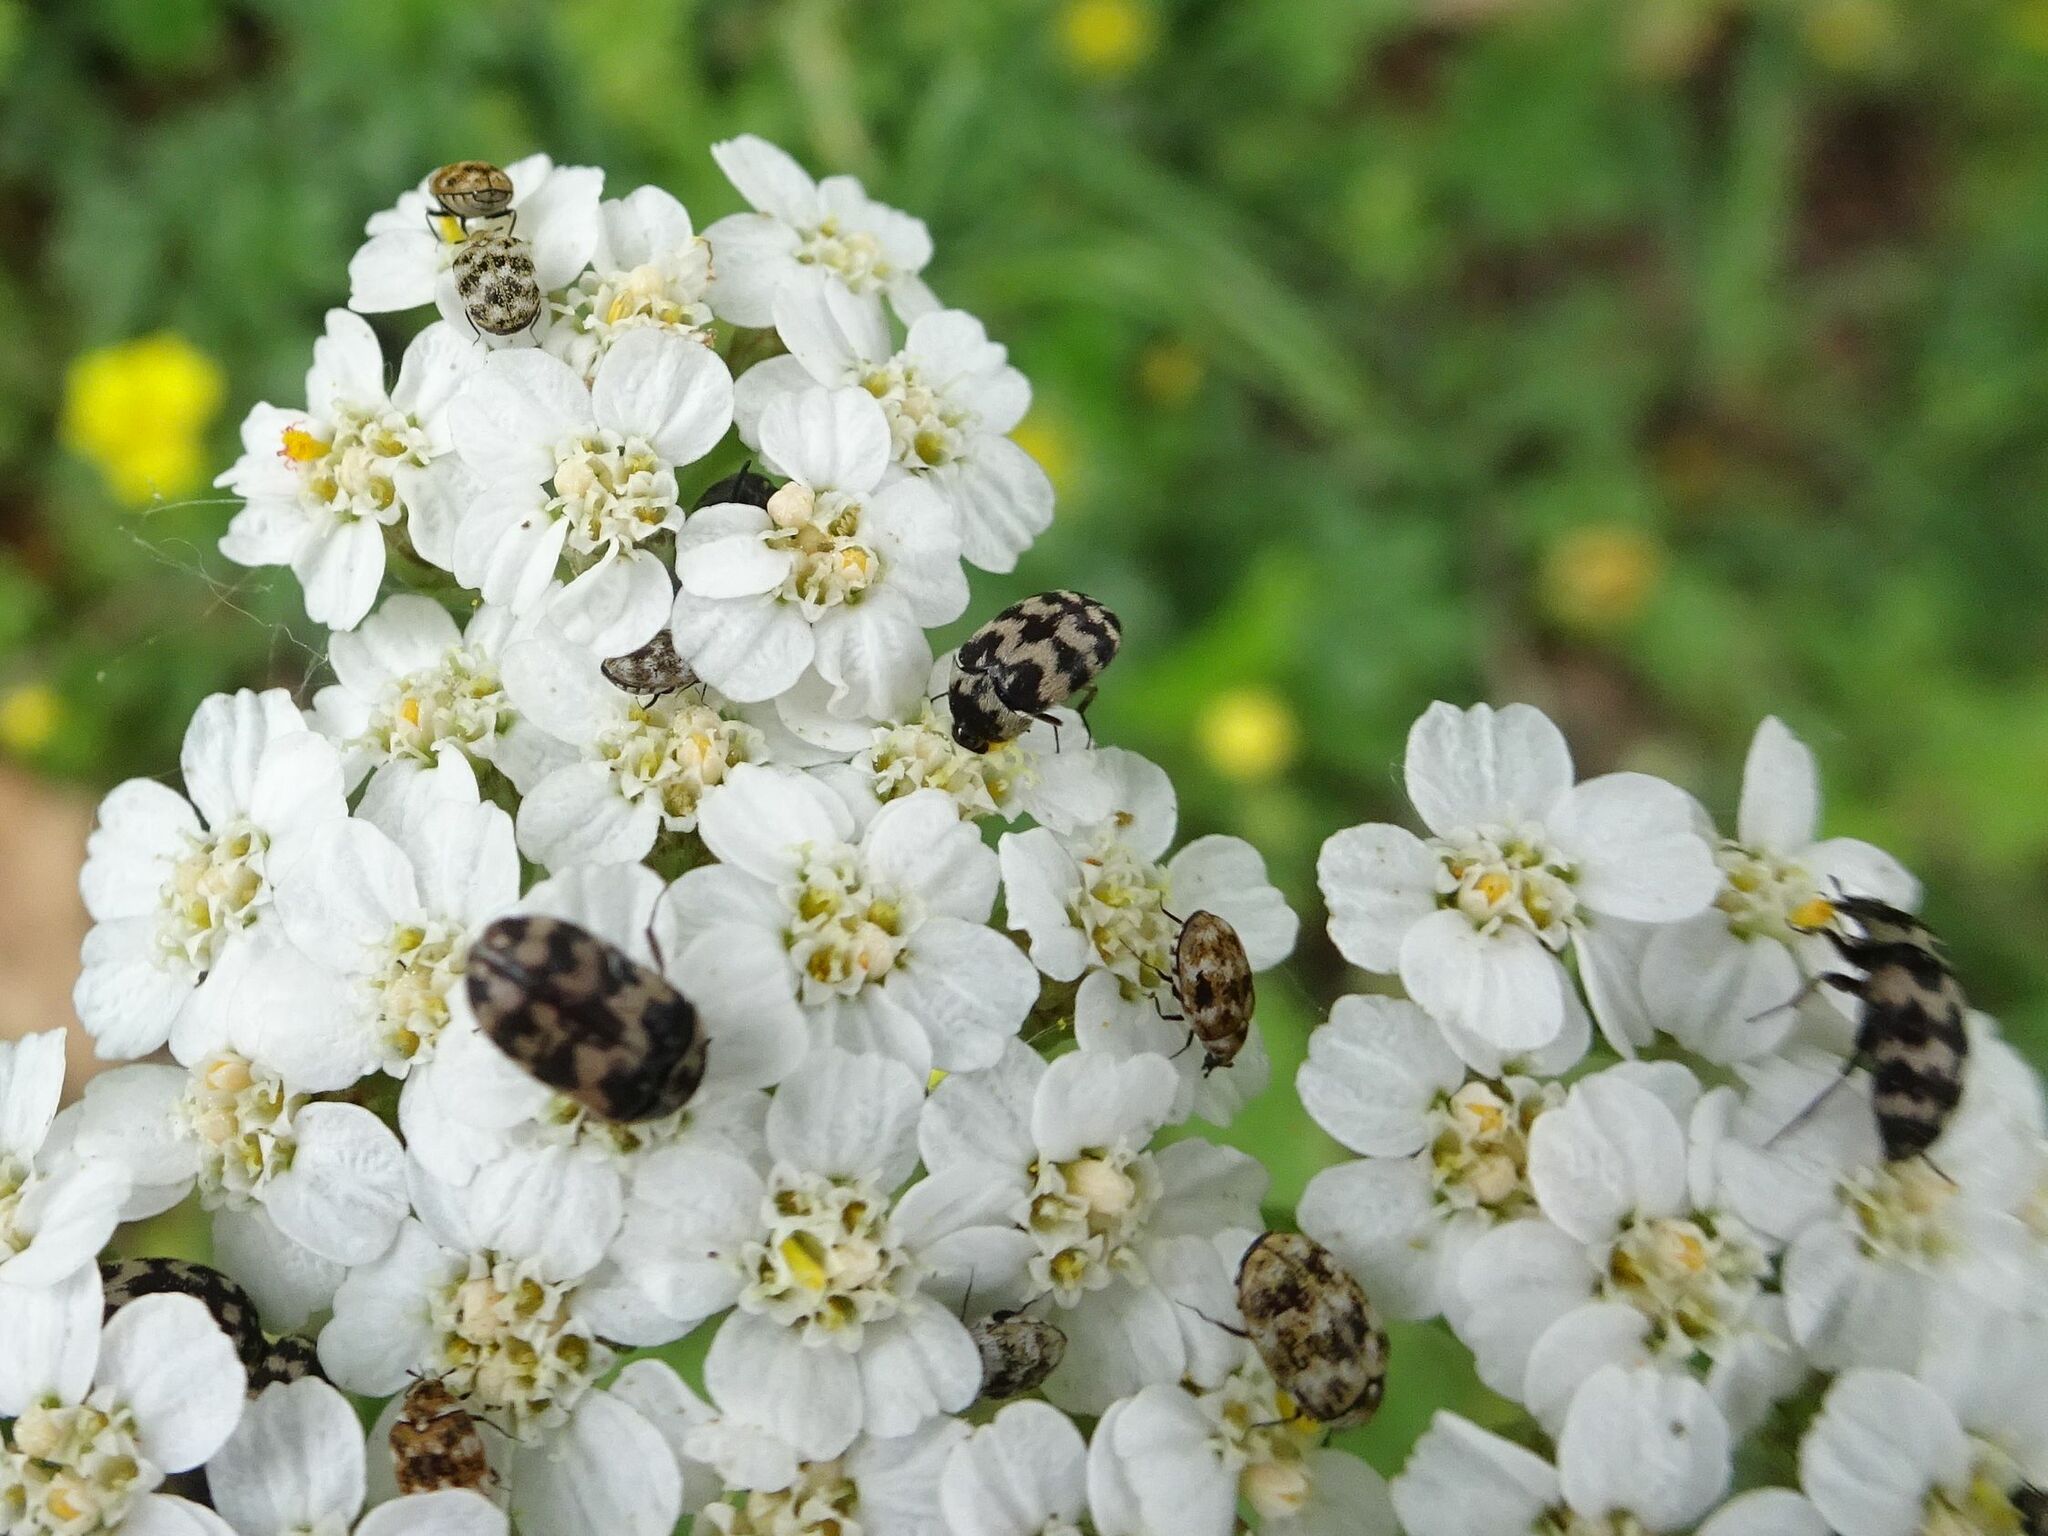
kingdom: Animalia
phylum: Arthropoda
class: Insecta
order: Coleoptera
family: Dermestidae
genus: Anthrenus
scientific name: Anthrenus verbasci
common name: Varied carpet beetle
